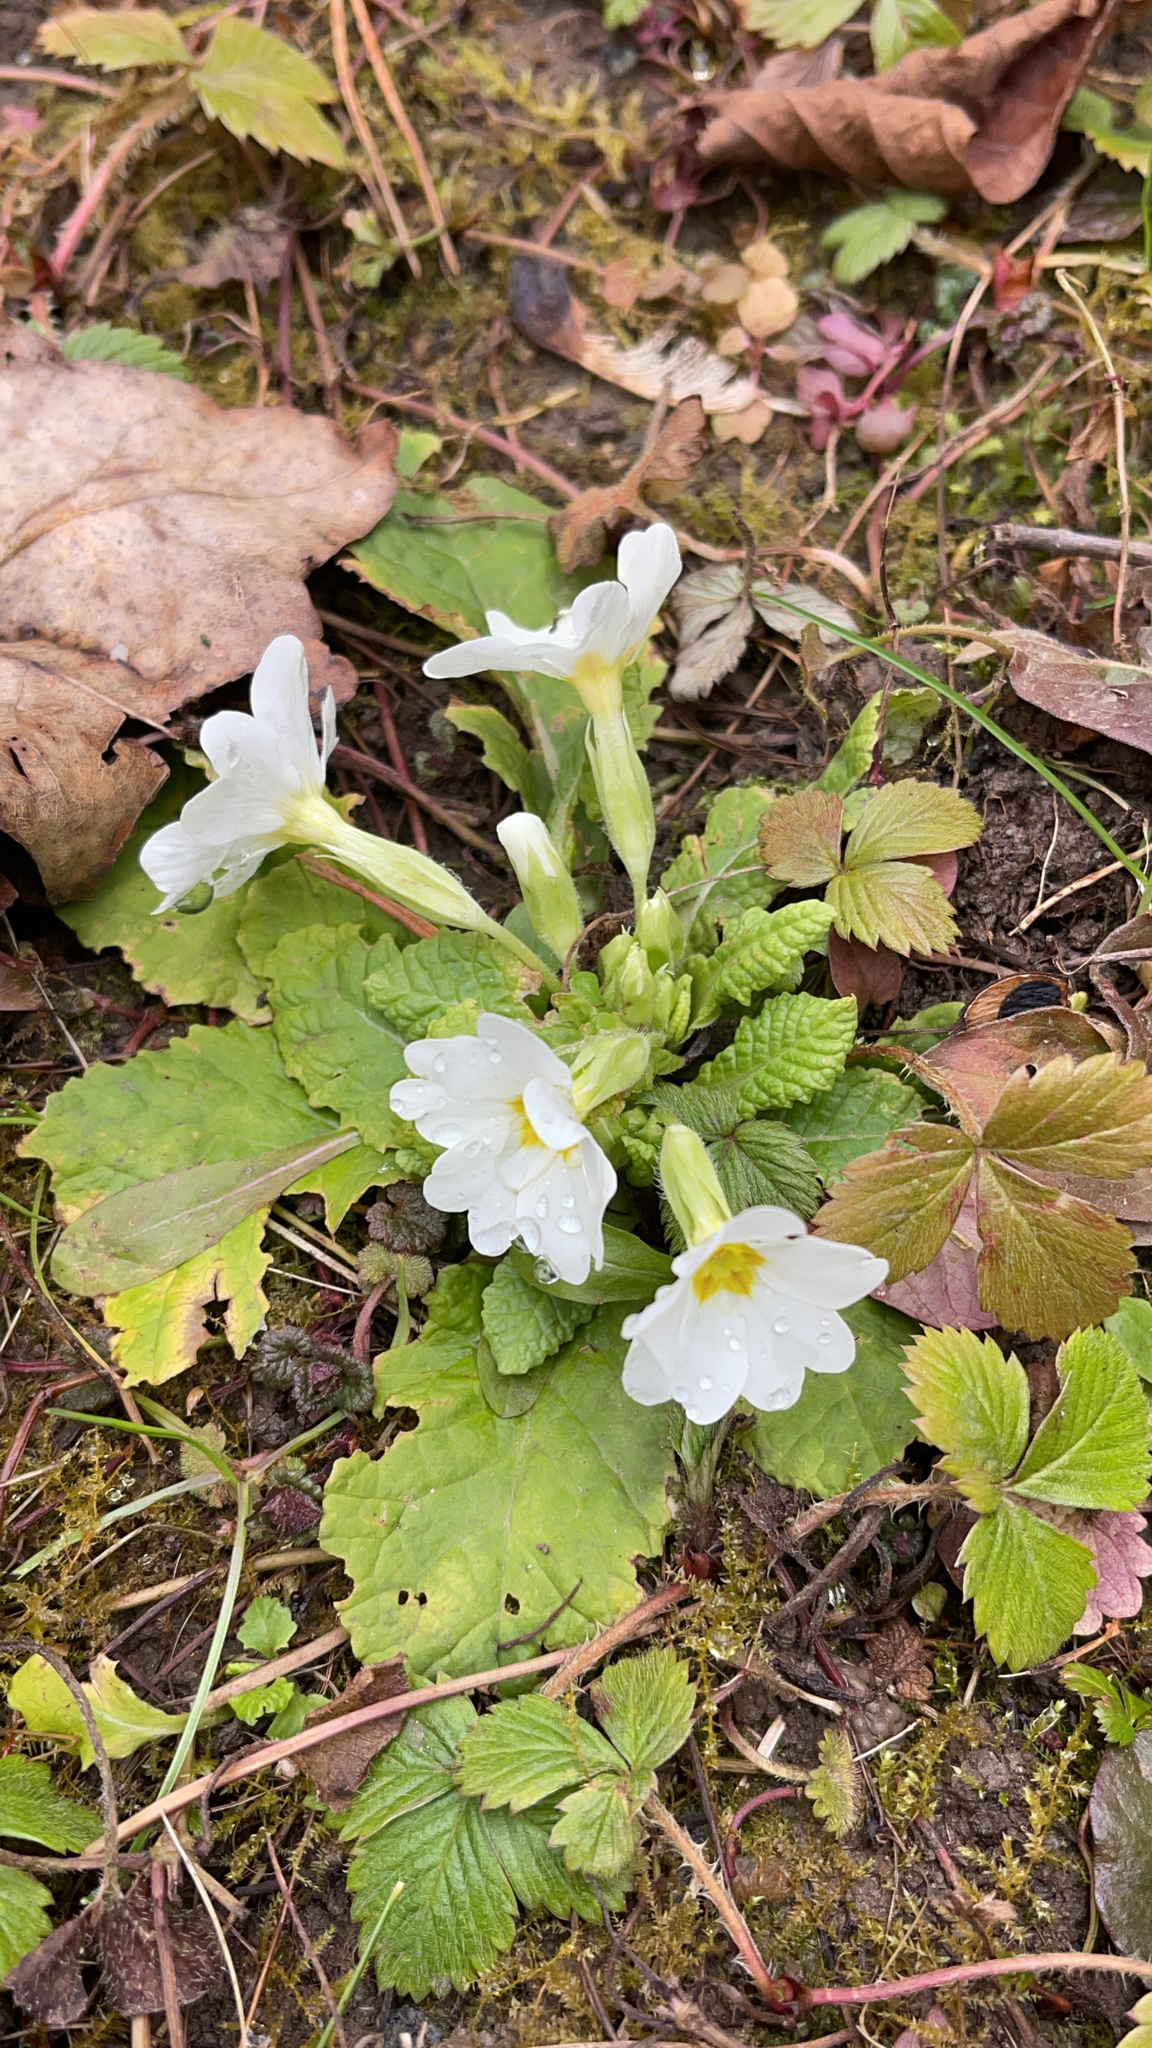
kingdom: Plantae
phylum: Tracheophyta
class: Magnoliopsida
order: Ericales
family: Primulaceae
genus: Primula
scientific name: Primula vulgaris
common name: Primrose
